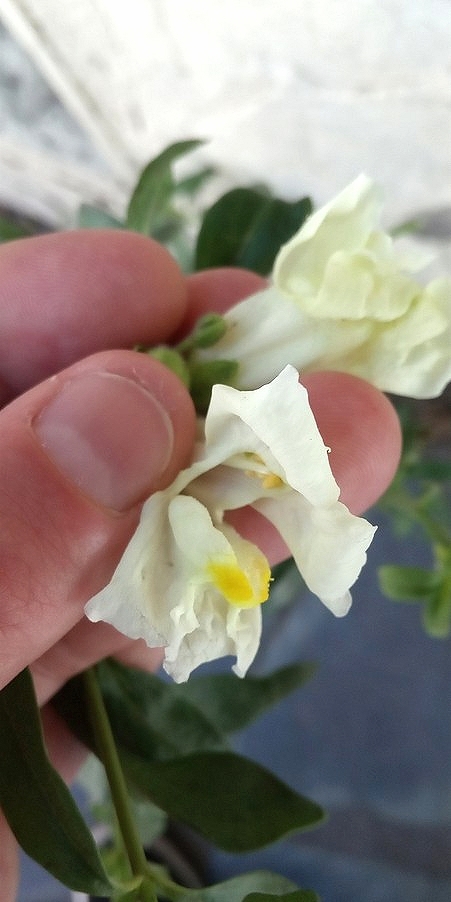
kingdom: Plantae
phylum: Tracheophyta
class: Magnoliopsida
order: Lamiales
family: Plantaginaceae
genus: Antirrhinum
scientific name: Antirrhinum majus
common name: Snapdragon
